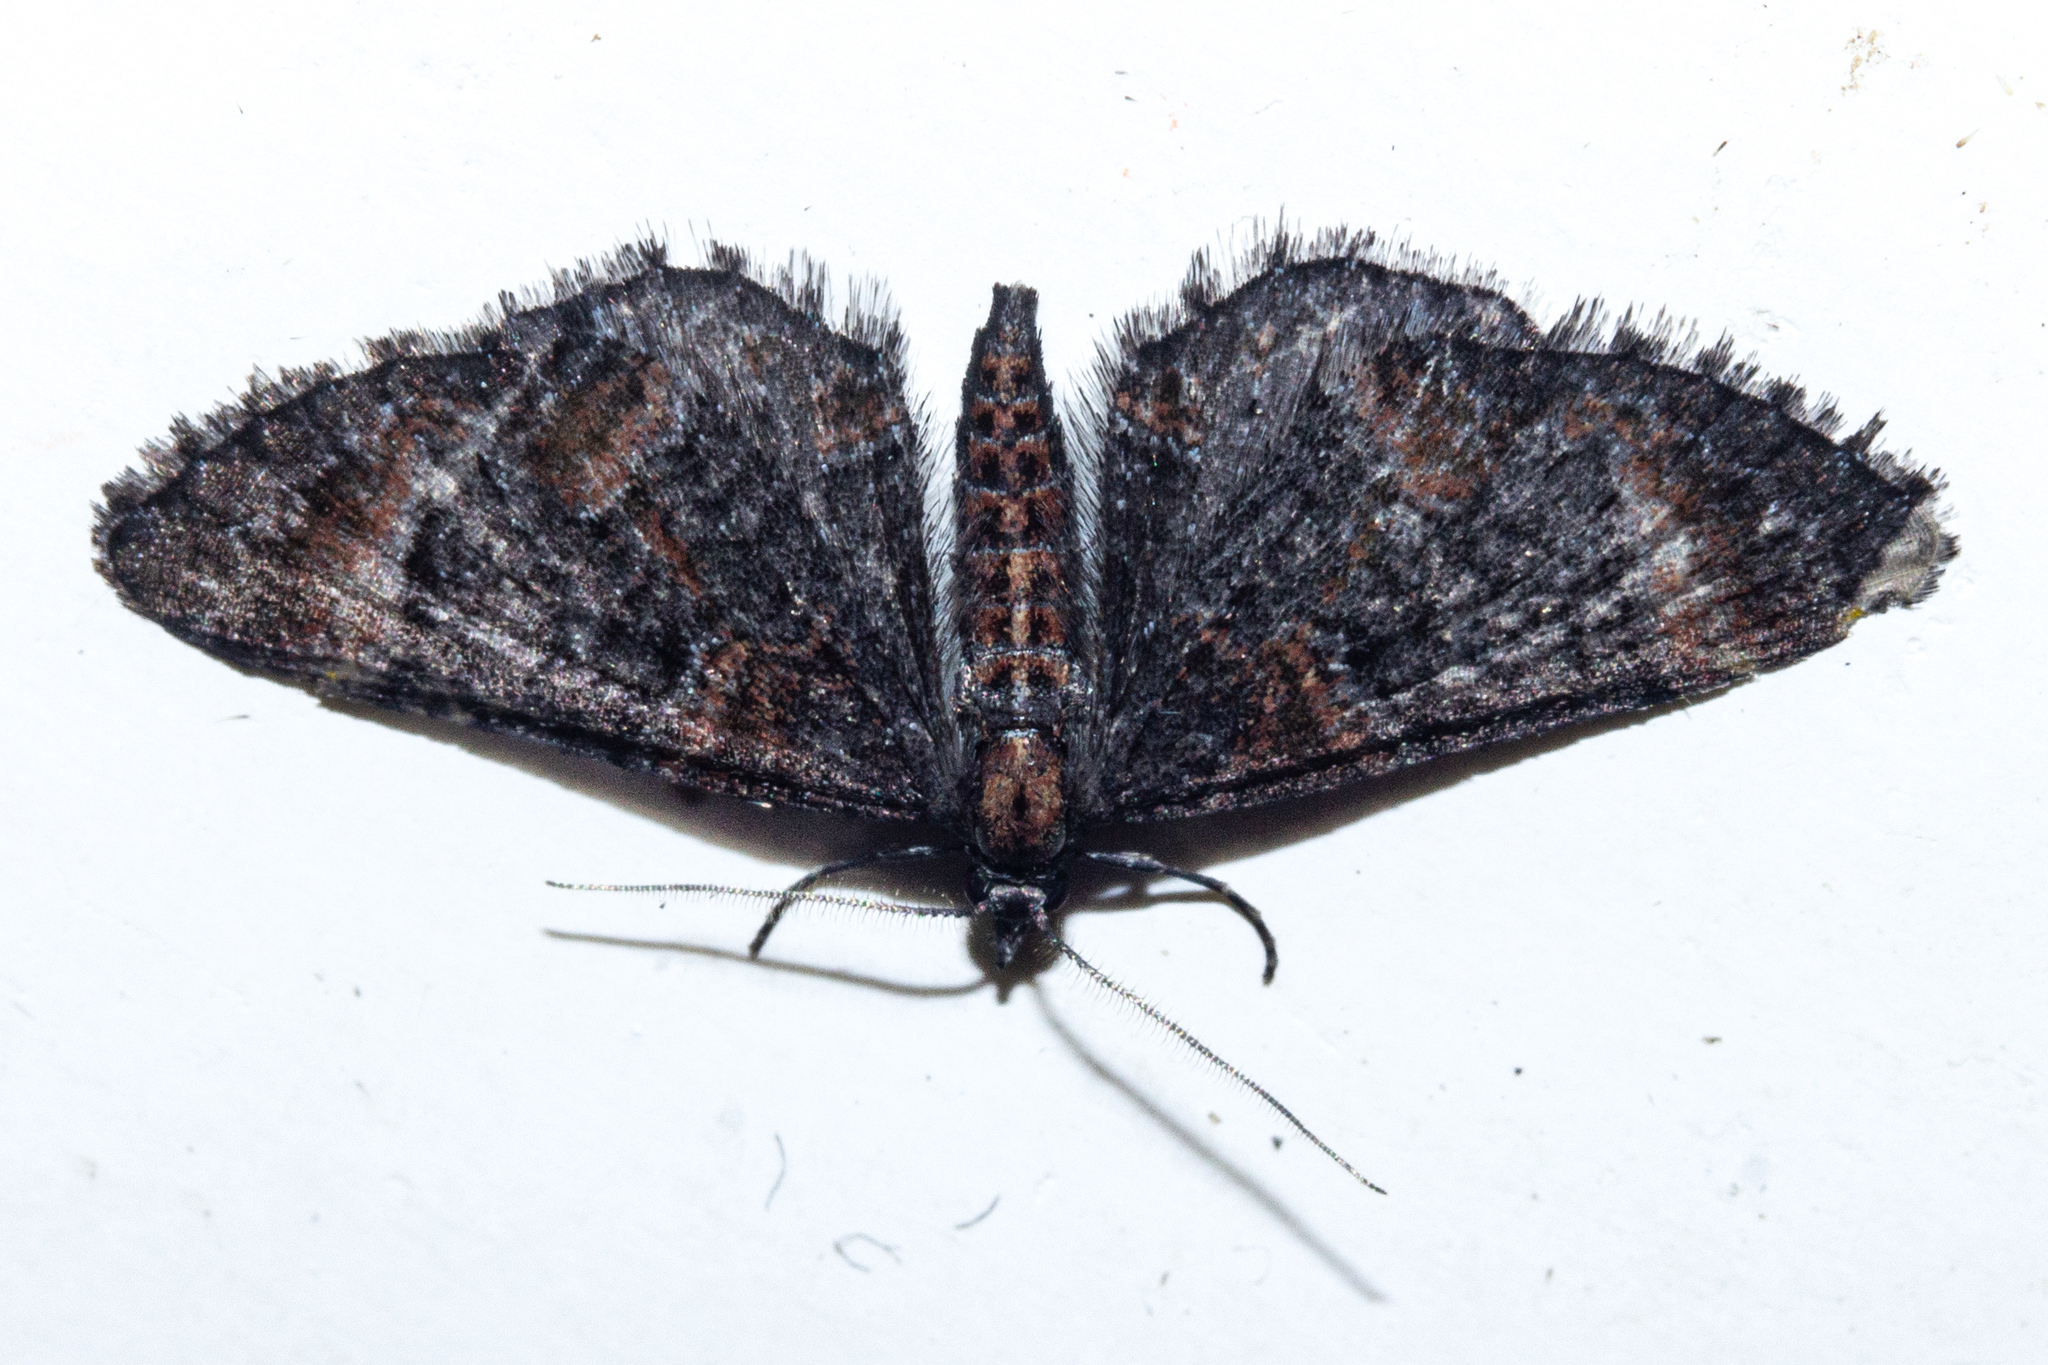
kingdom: Animalia
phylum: Arthropoda
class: Insecta
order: Lepidoptera
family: Geometridae
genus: Pasiphila
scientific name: Pasiphila erratica
